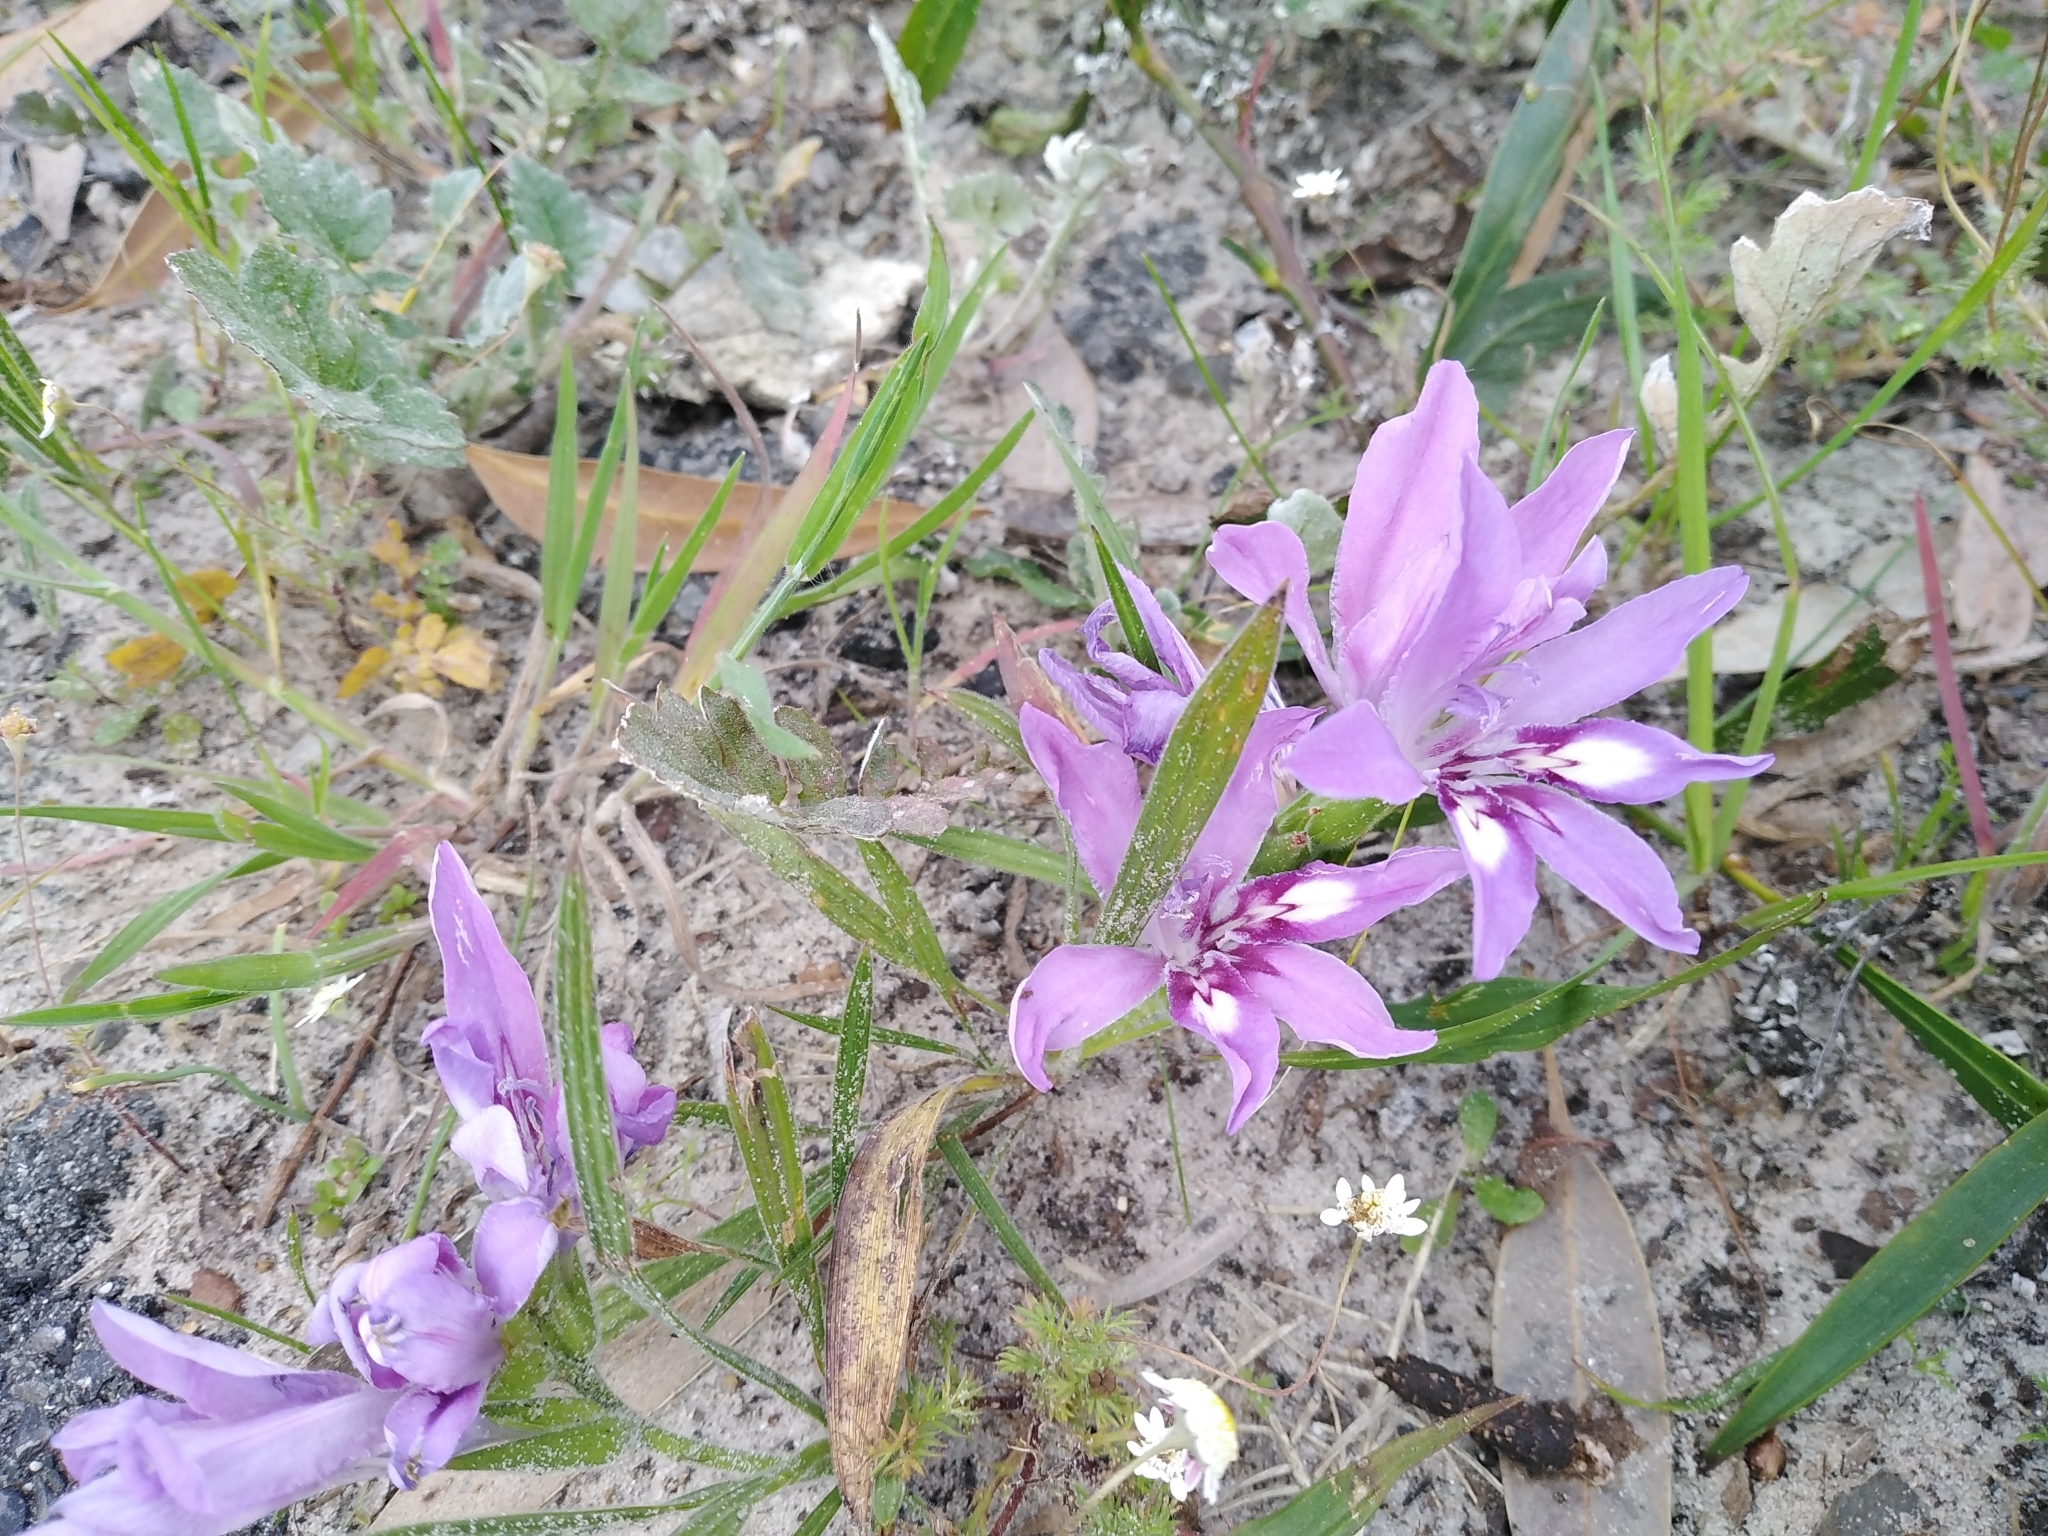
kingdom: Plantae
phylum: Tracheophyta
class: Liliopsida
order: Asparagales
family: Iridaceae
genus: Babiana
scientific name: Babiana ambigua
